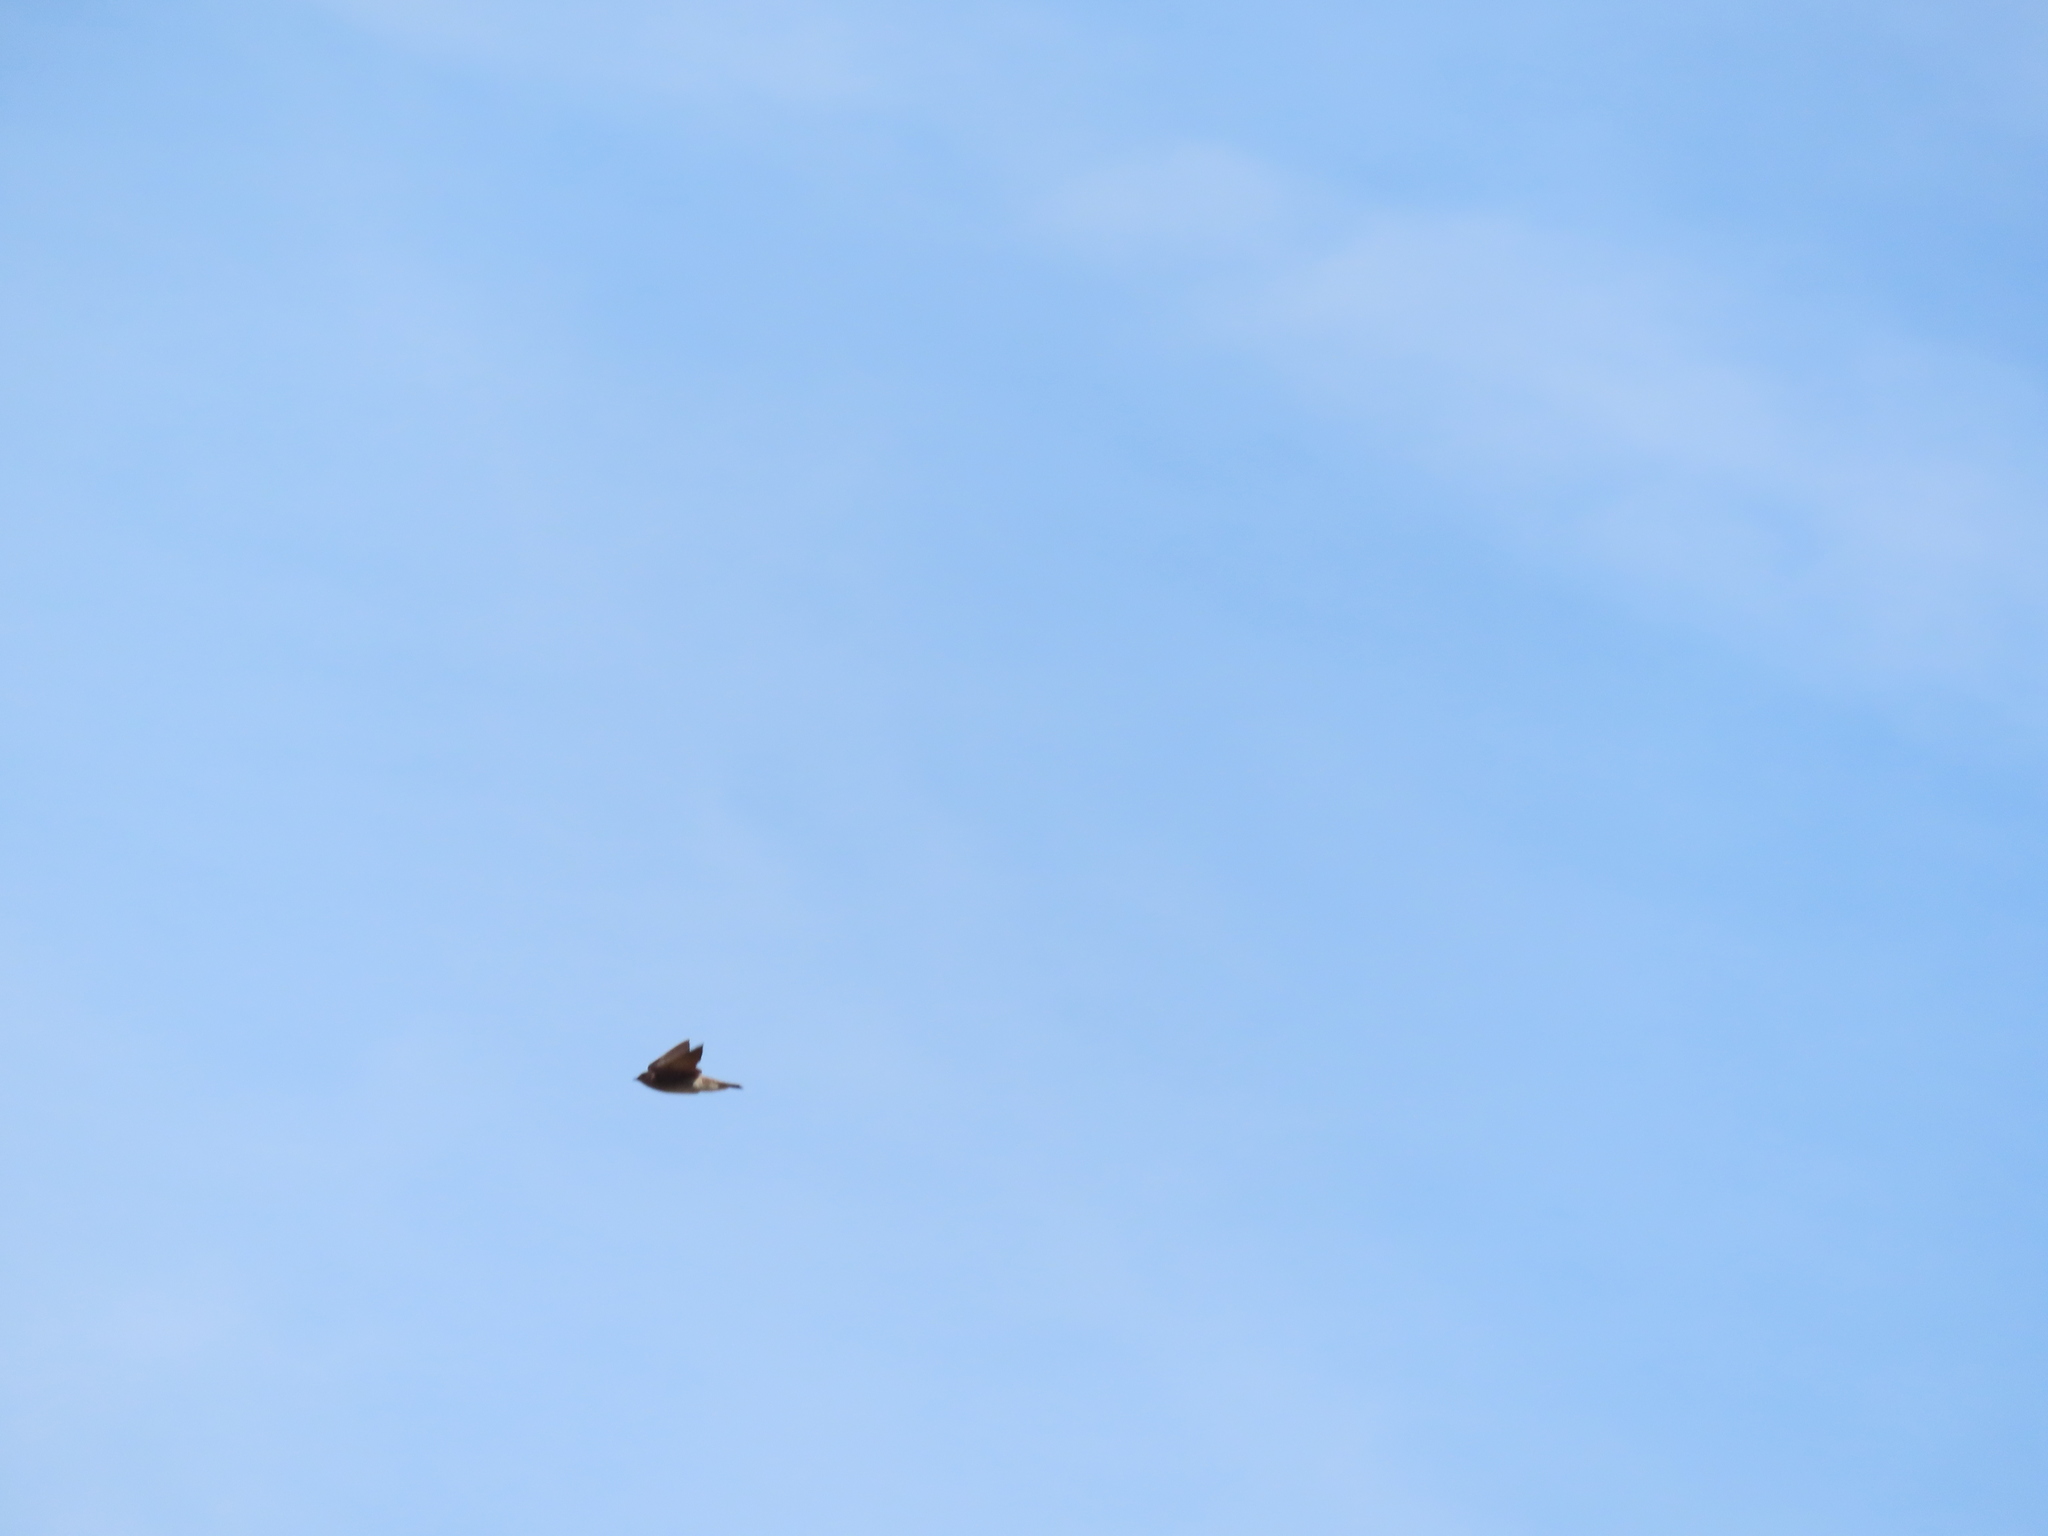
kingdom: Animalia
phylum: Chordata
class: Aves
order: Passeriformes
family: Hirundinidae
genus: Stelgidopteryx
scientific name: Stelgidopteryx serripennis
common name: Northern rough-winged swallow
